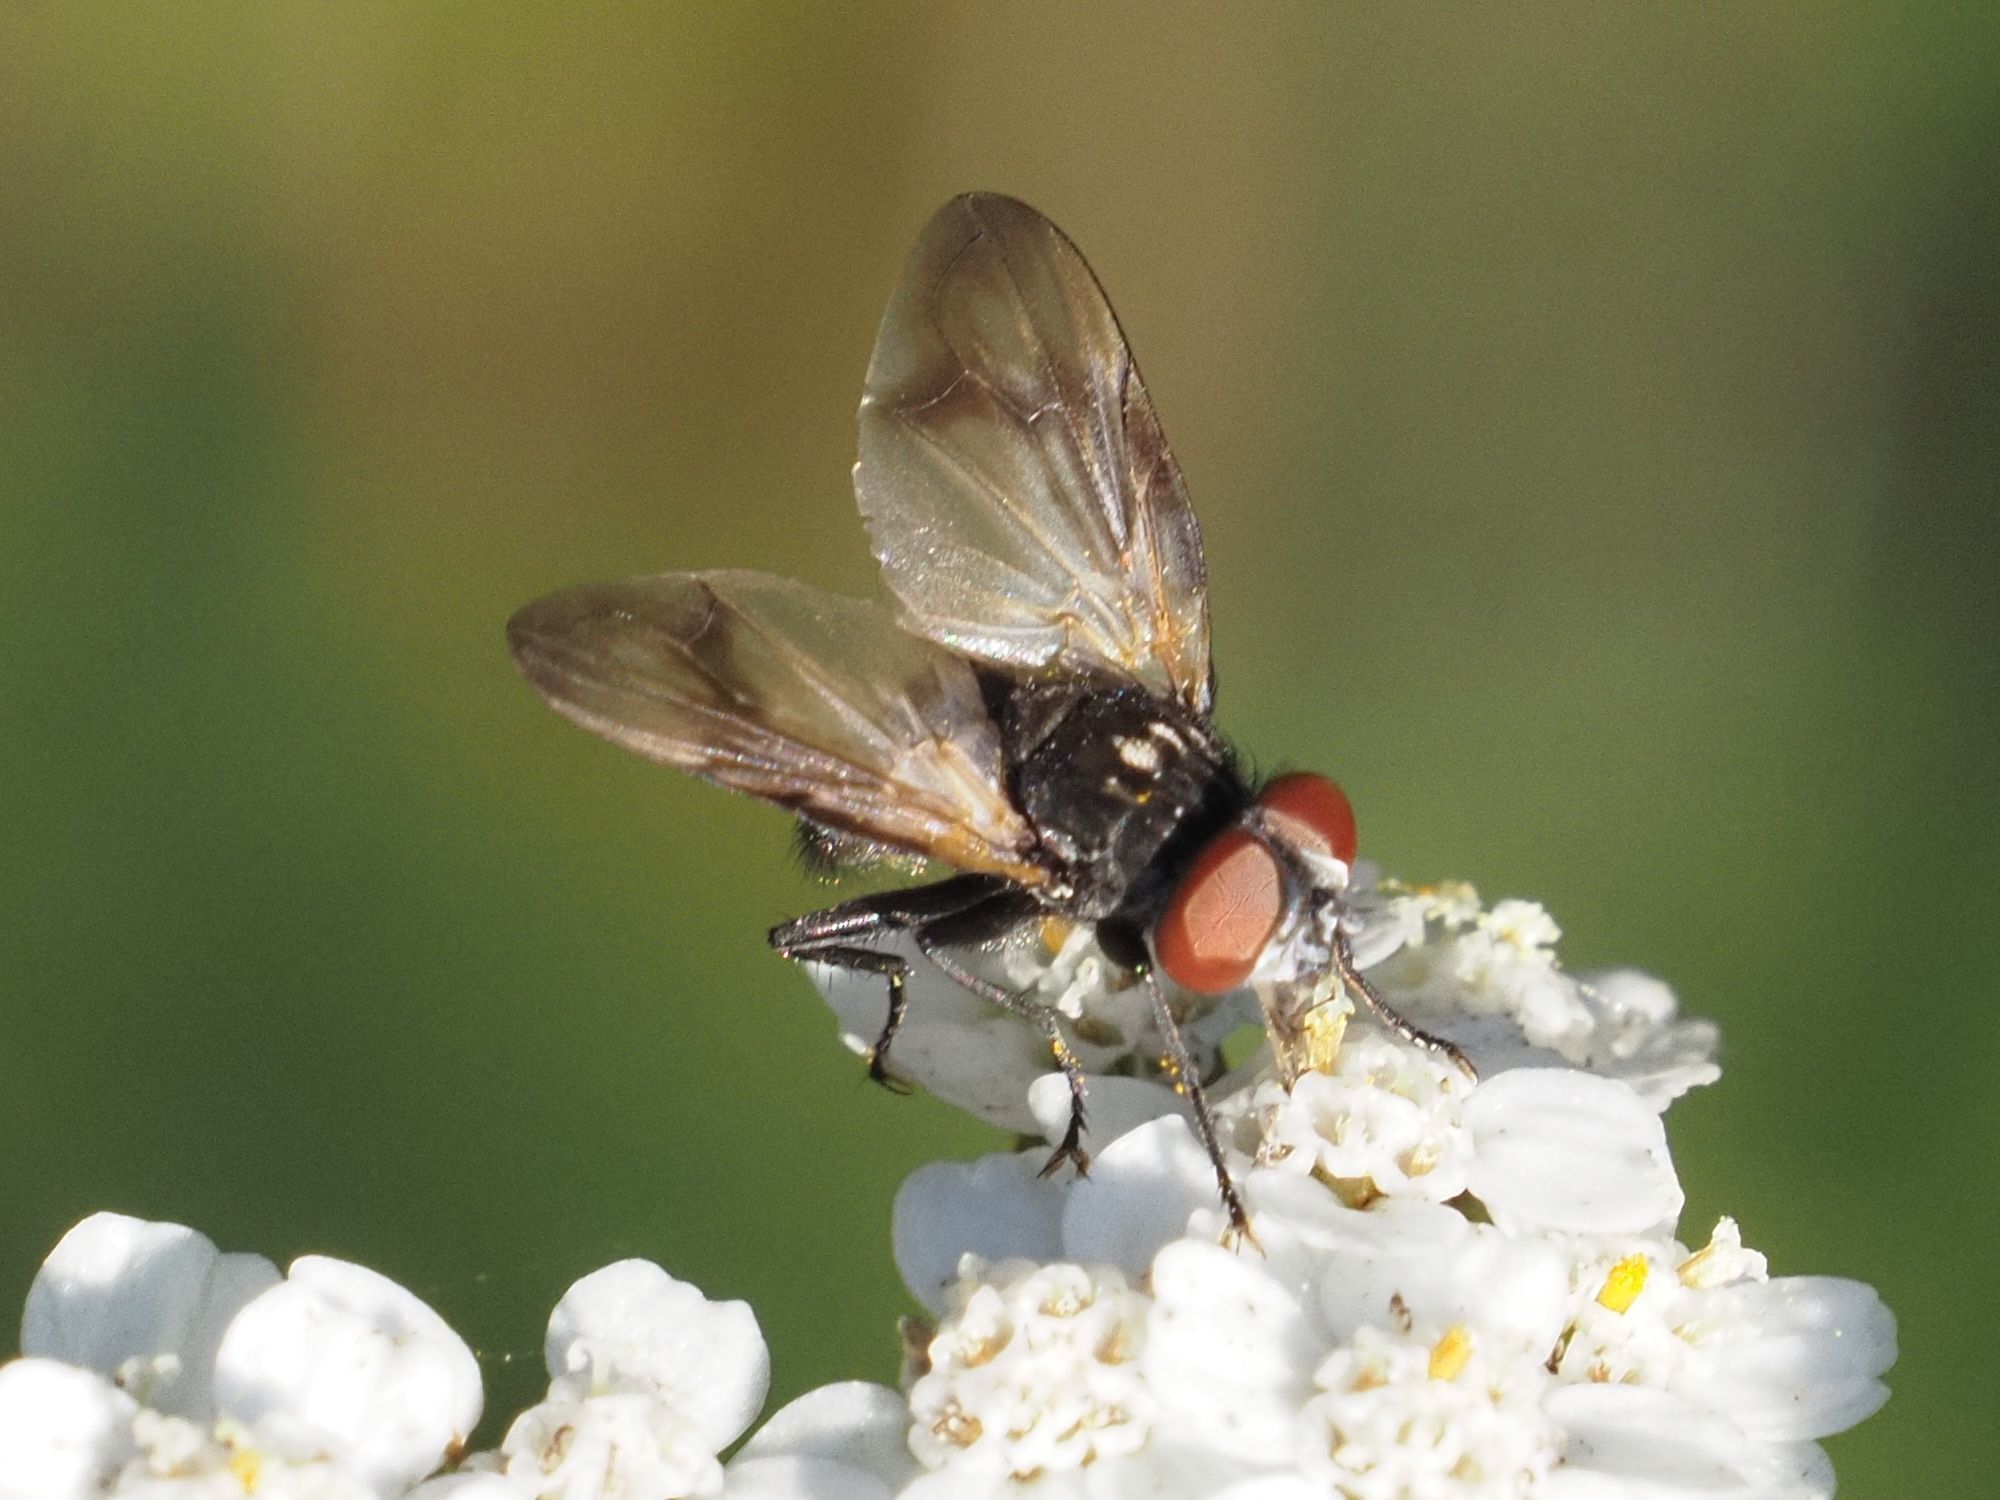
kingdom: Animalia
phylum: Arthropoda
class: Insecta
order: Diptera
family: Tachinidae
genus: Phasia
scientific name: Phasia obesa
